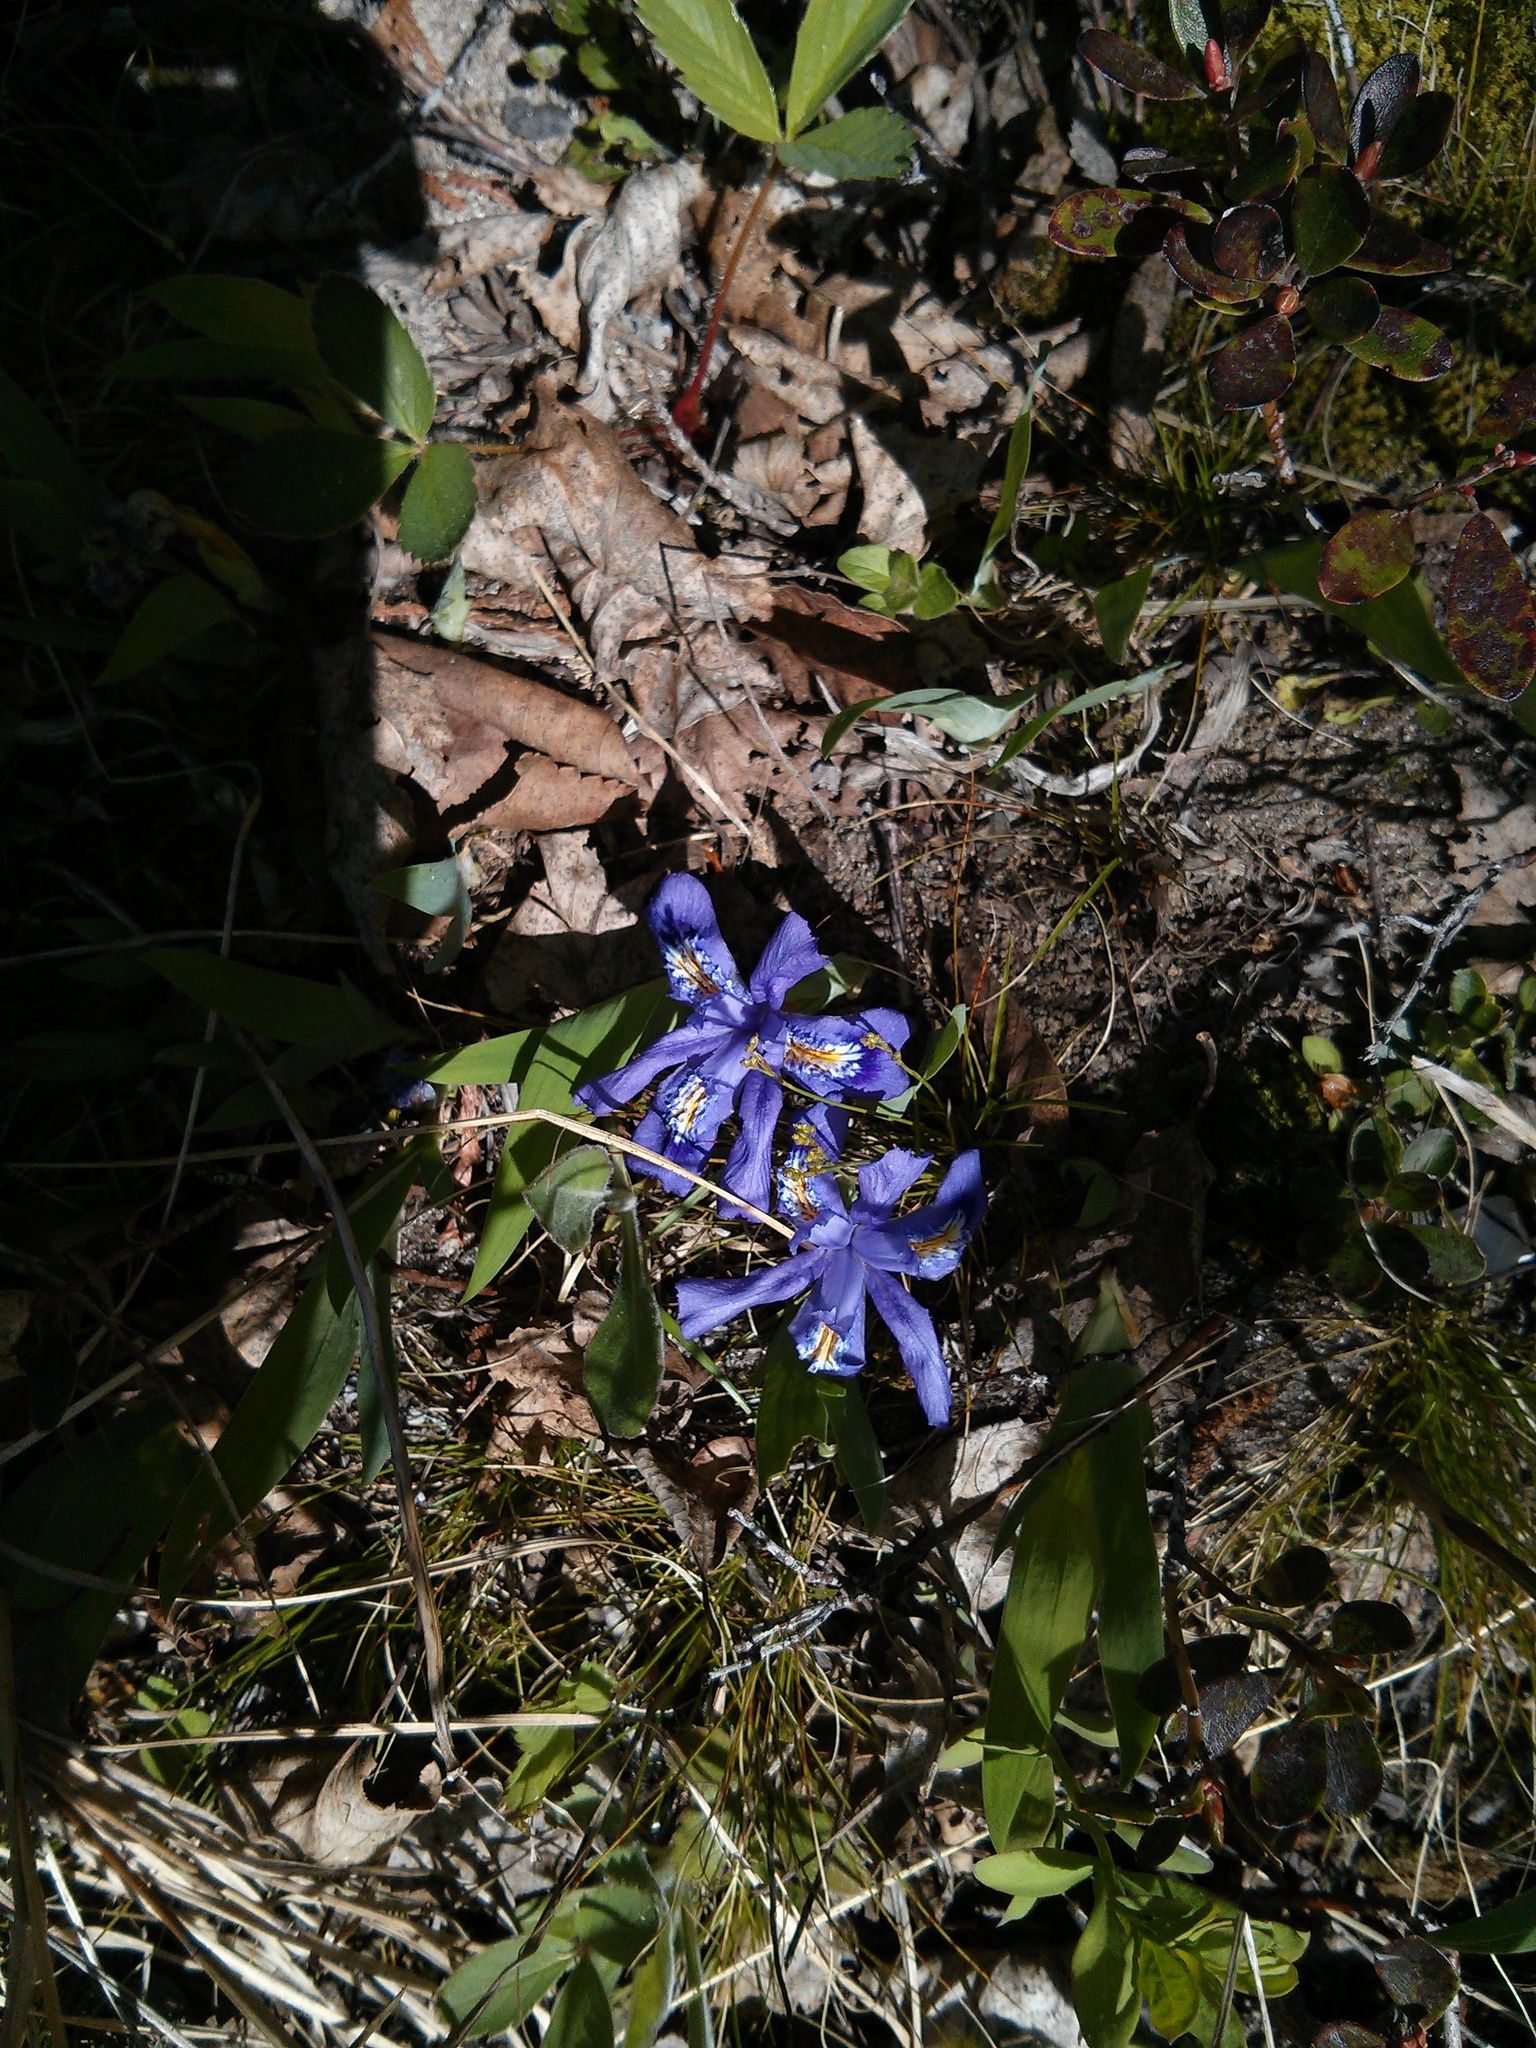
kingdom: Plantae
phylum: Tracheophyta
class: Liliopsida
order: Asparagales
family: Iridaceae
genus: Iris
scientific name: Iris lacustris
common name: Dwarf lake iris
